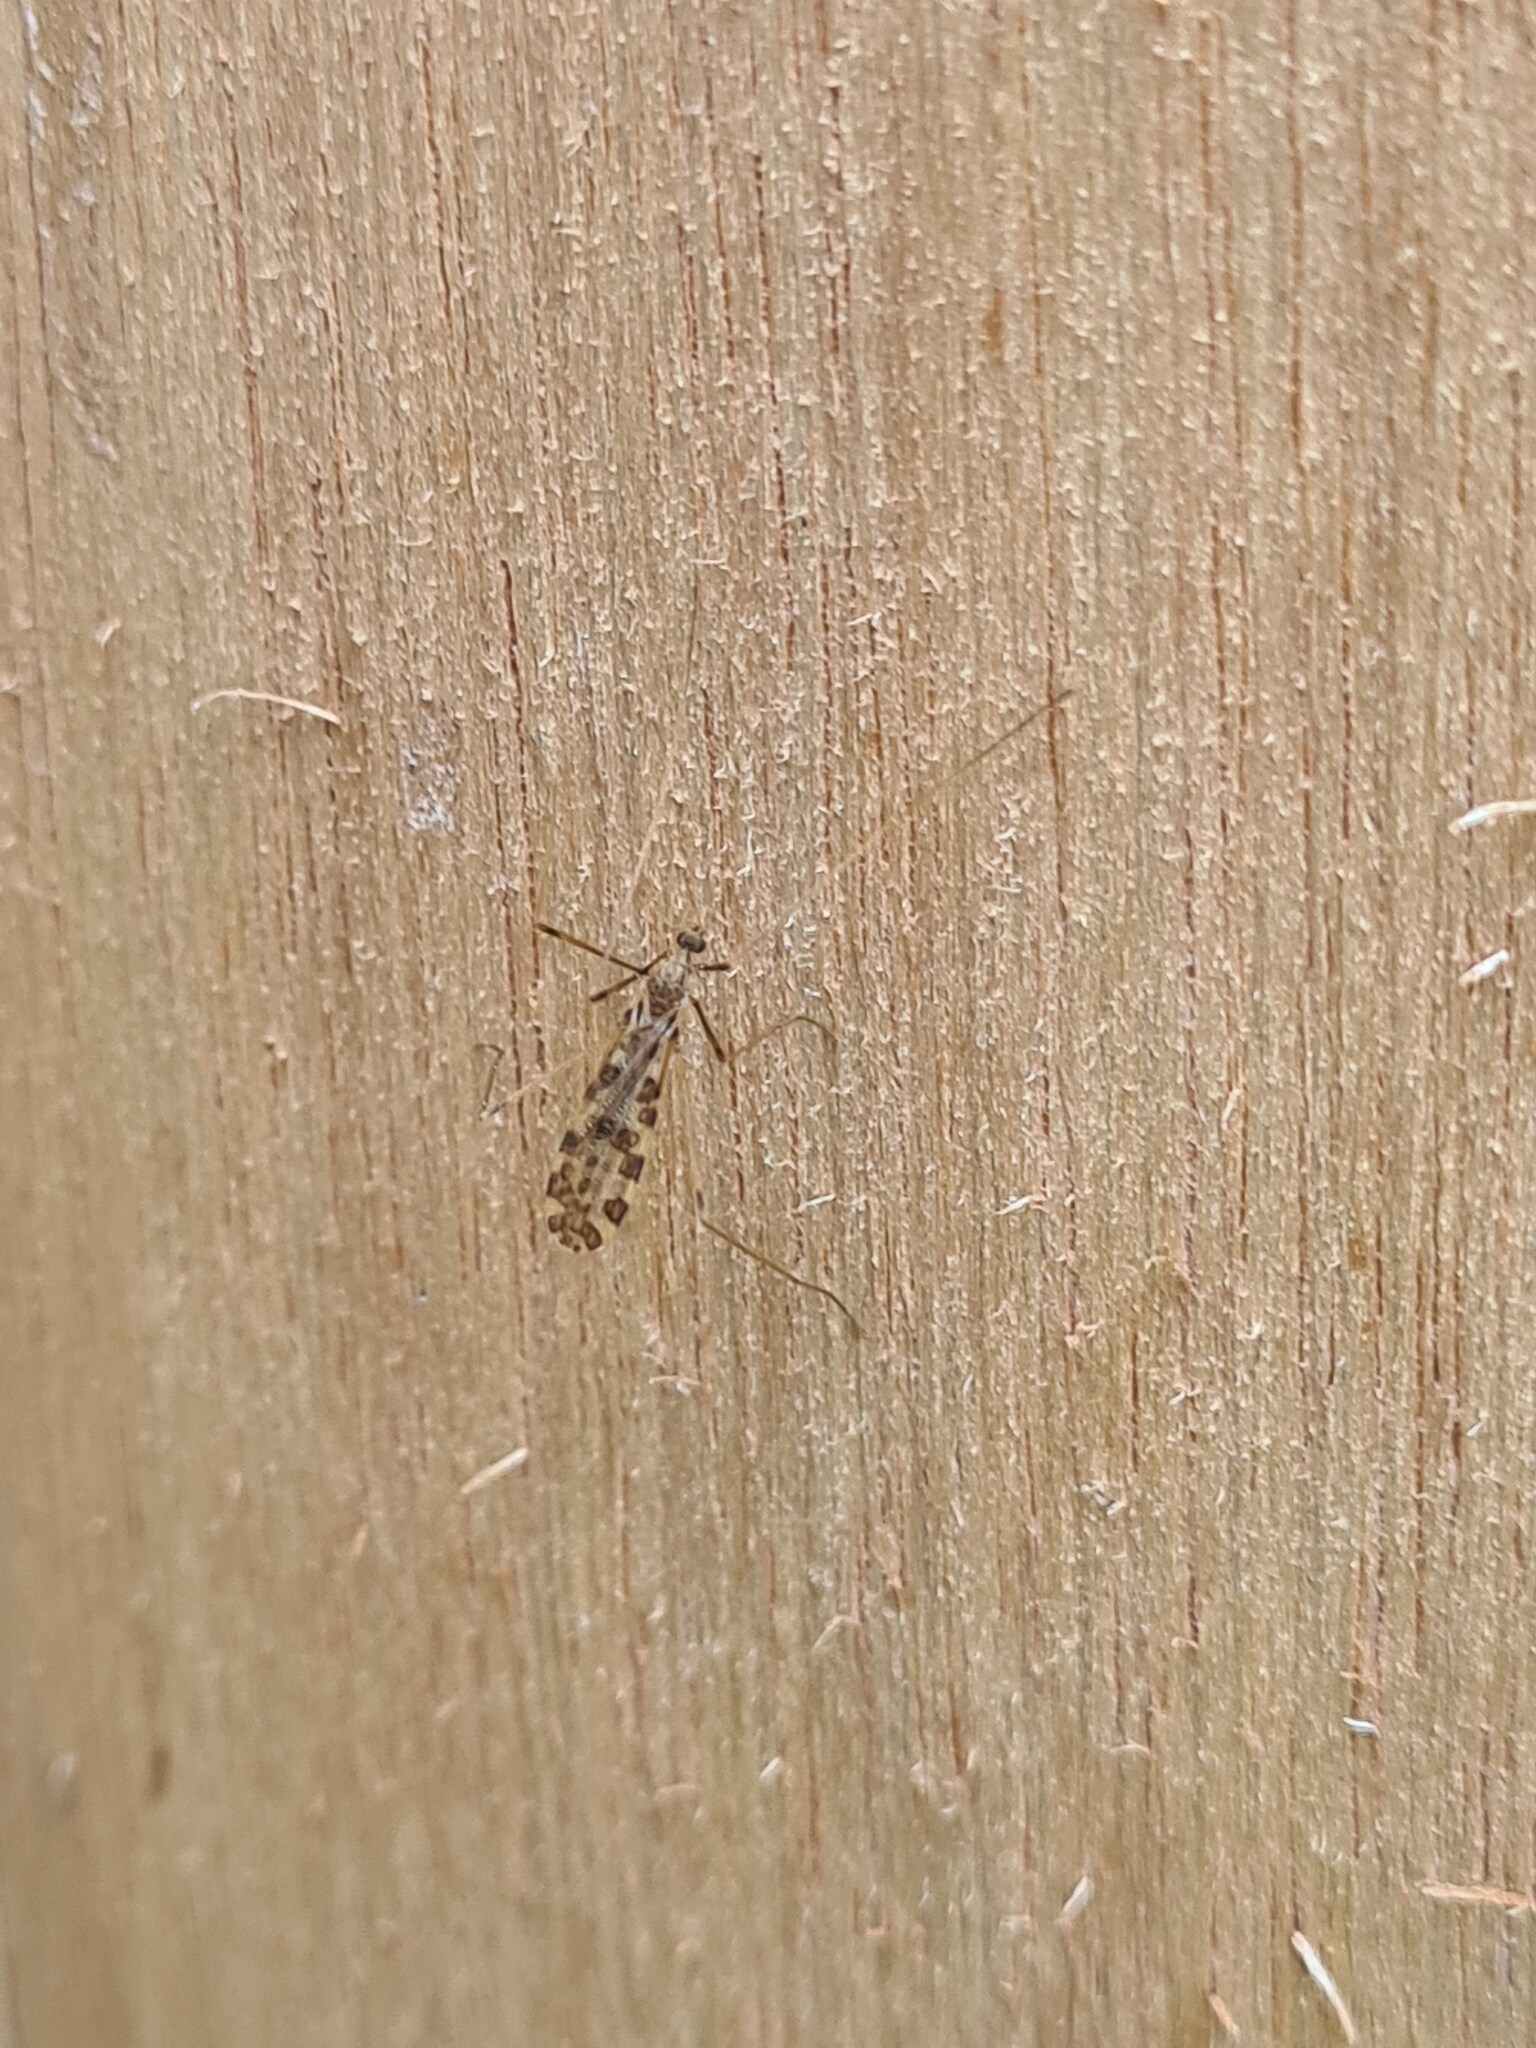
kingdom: Animalia
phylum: Arthropoda
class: Insecta
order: Diptera
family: Limoniidae
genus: Ilisia
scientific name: Ilisia maculata
